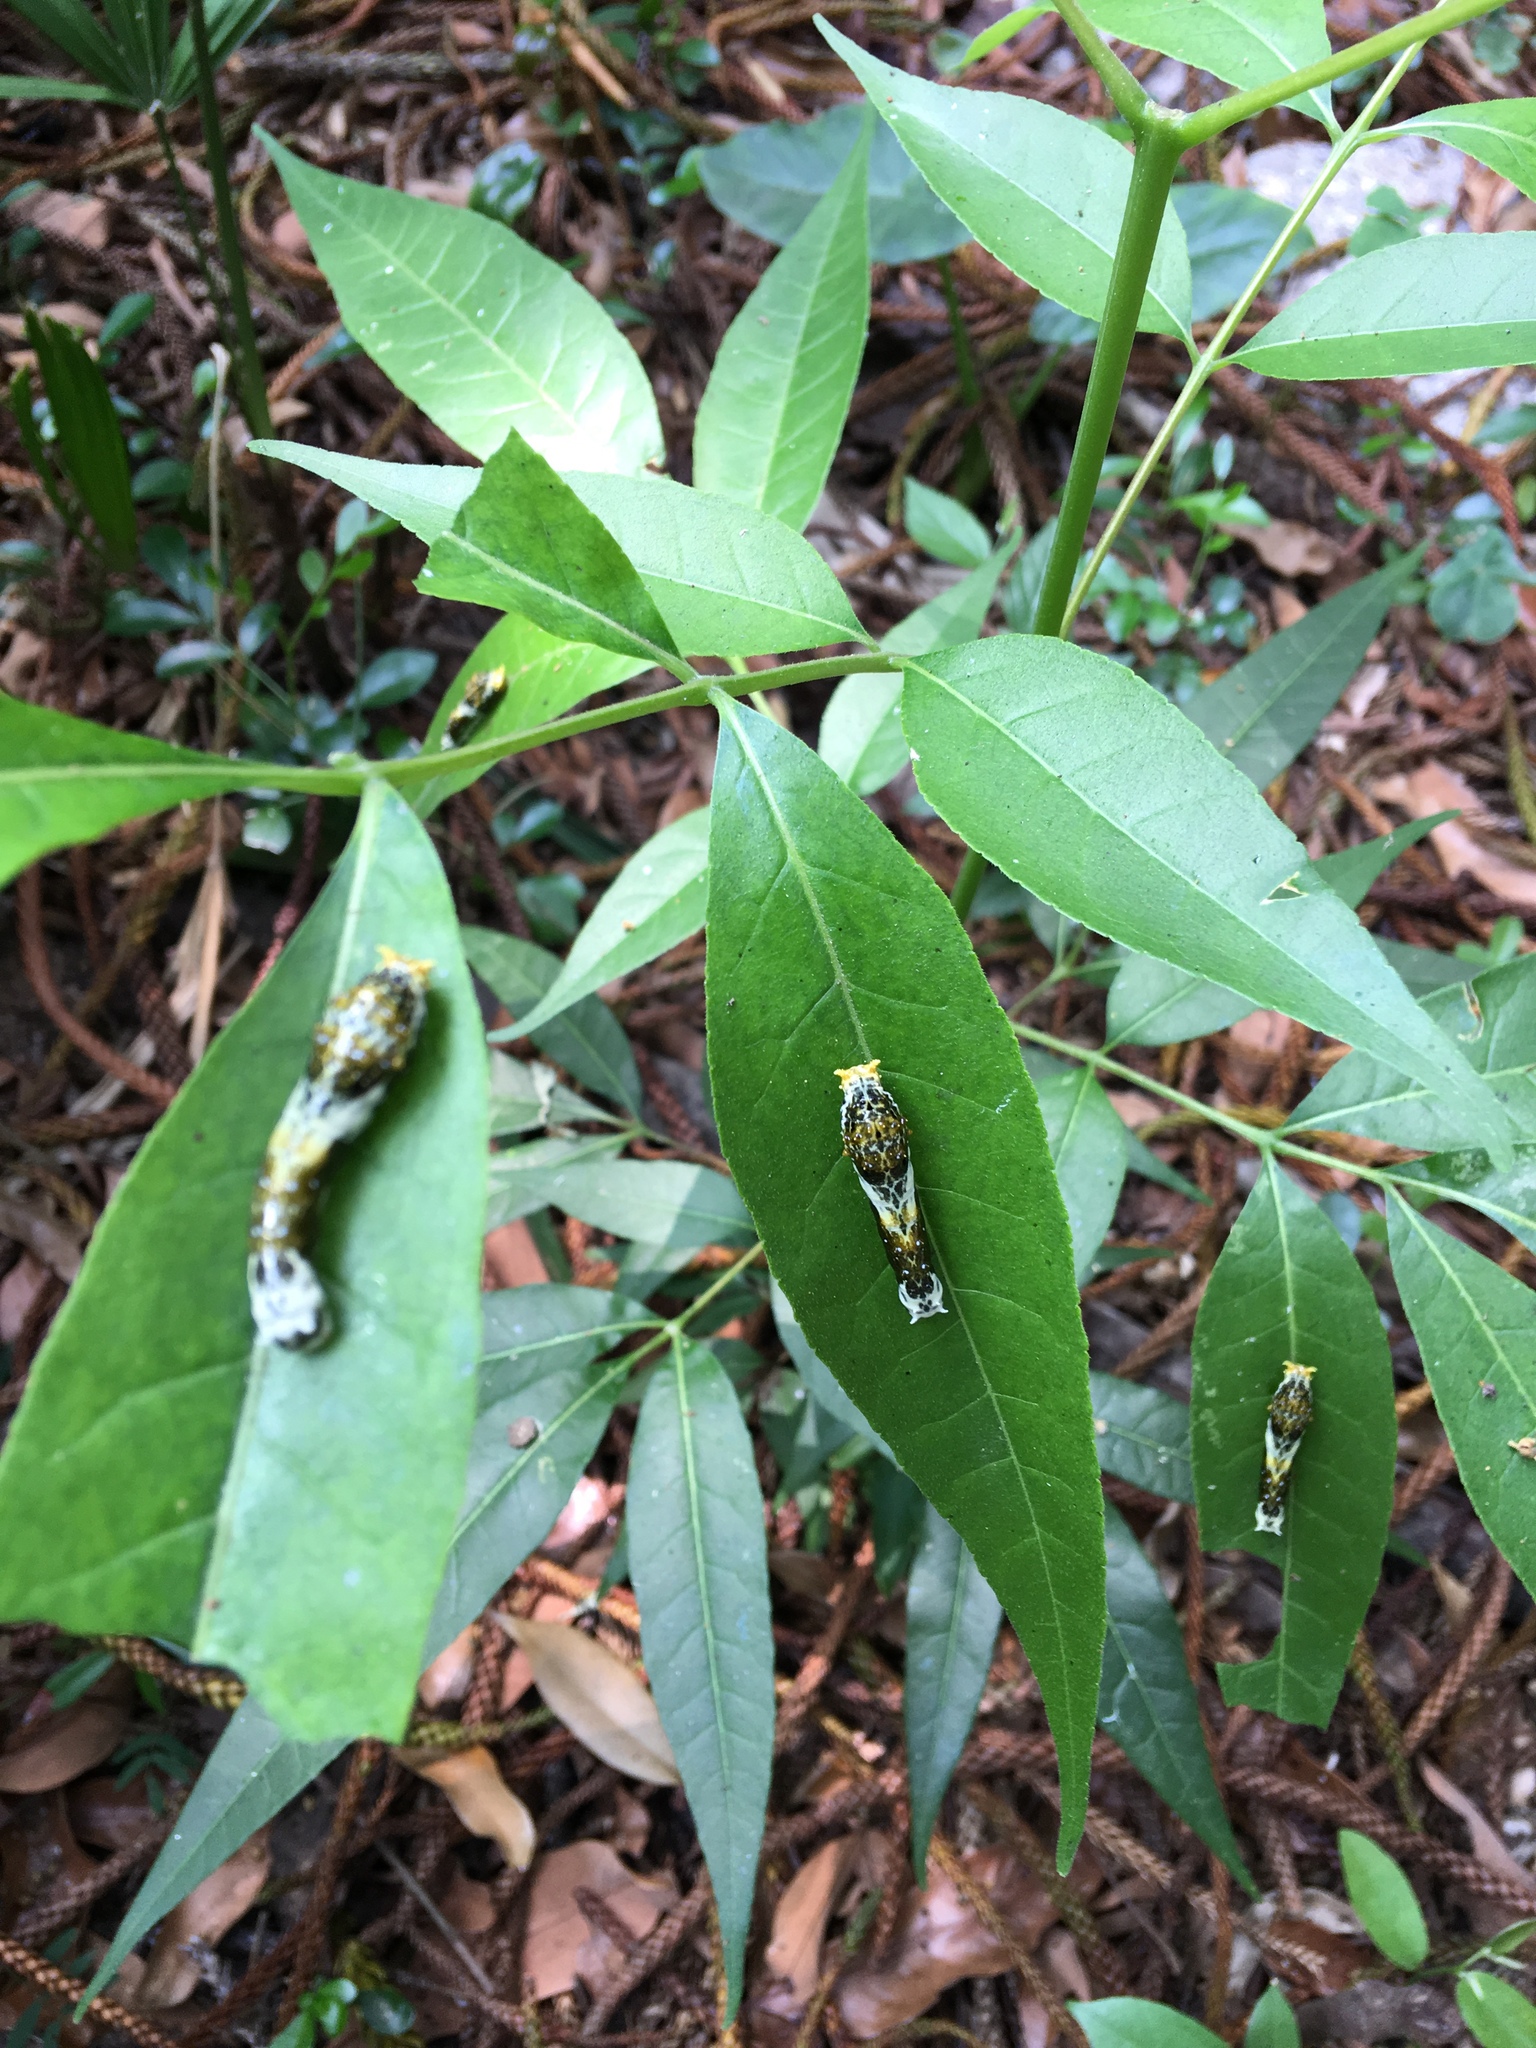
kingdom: Animalia
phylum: Arthropoda
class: Insecta
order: Lepidoptera
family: Papilionidae
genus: Papilio
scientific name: Papilio helenus
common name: Red helen
